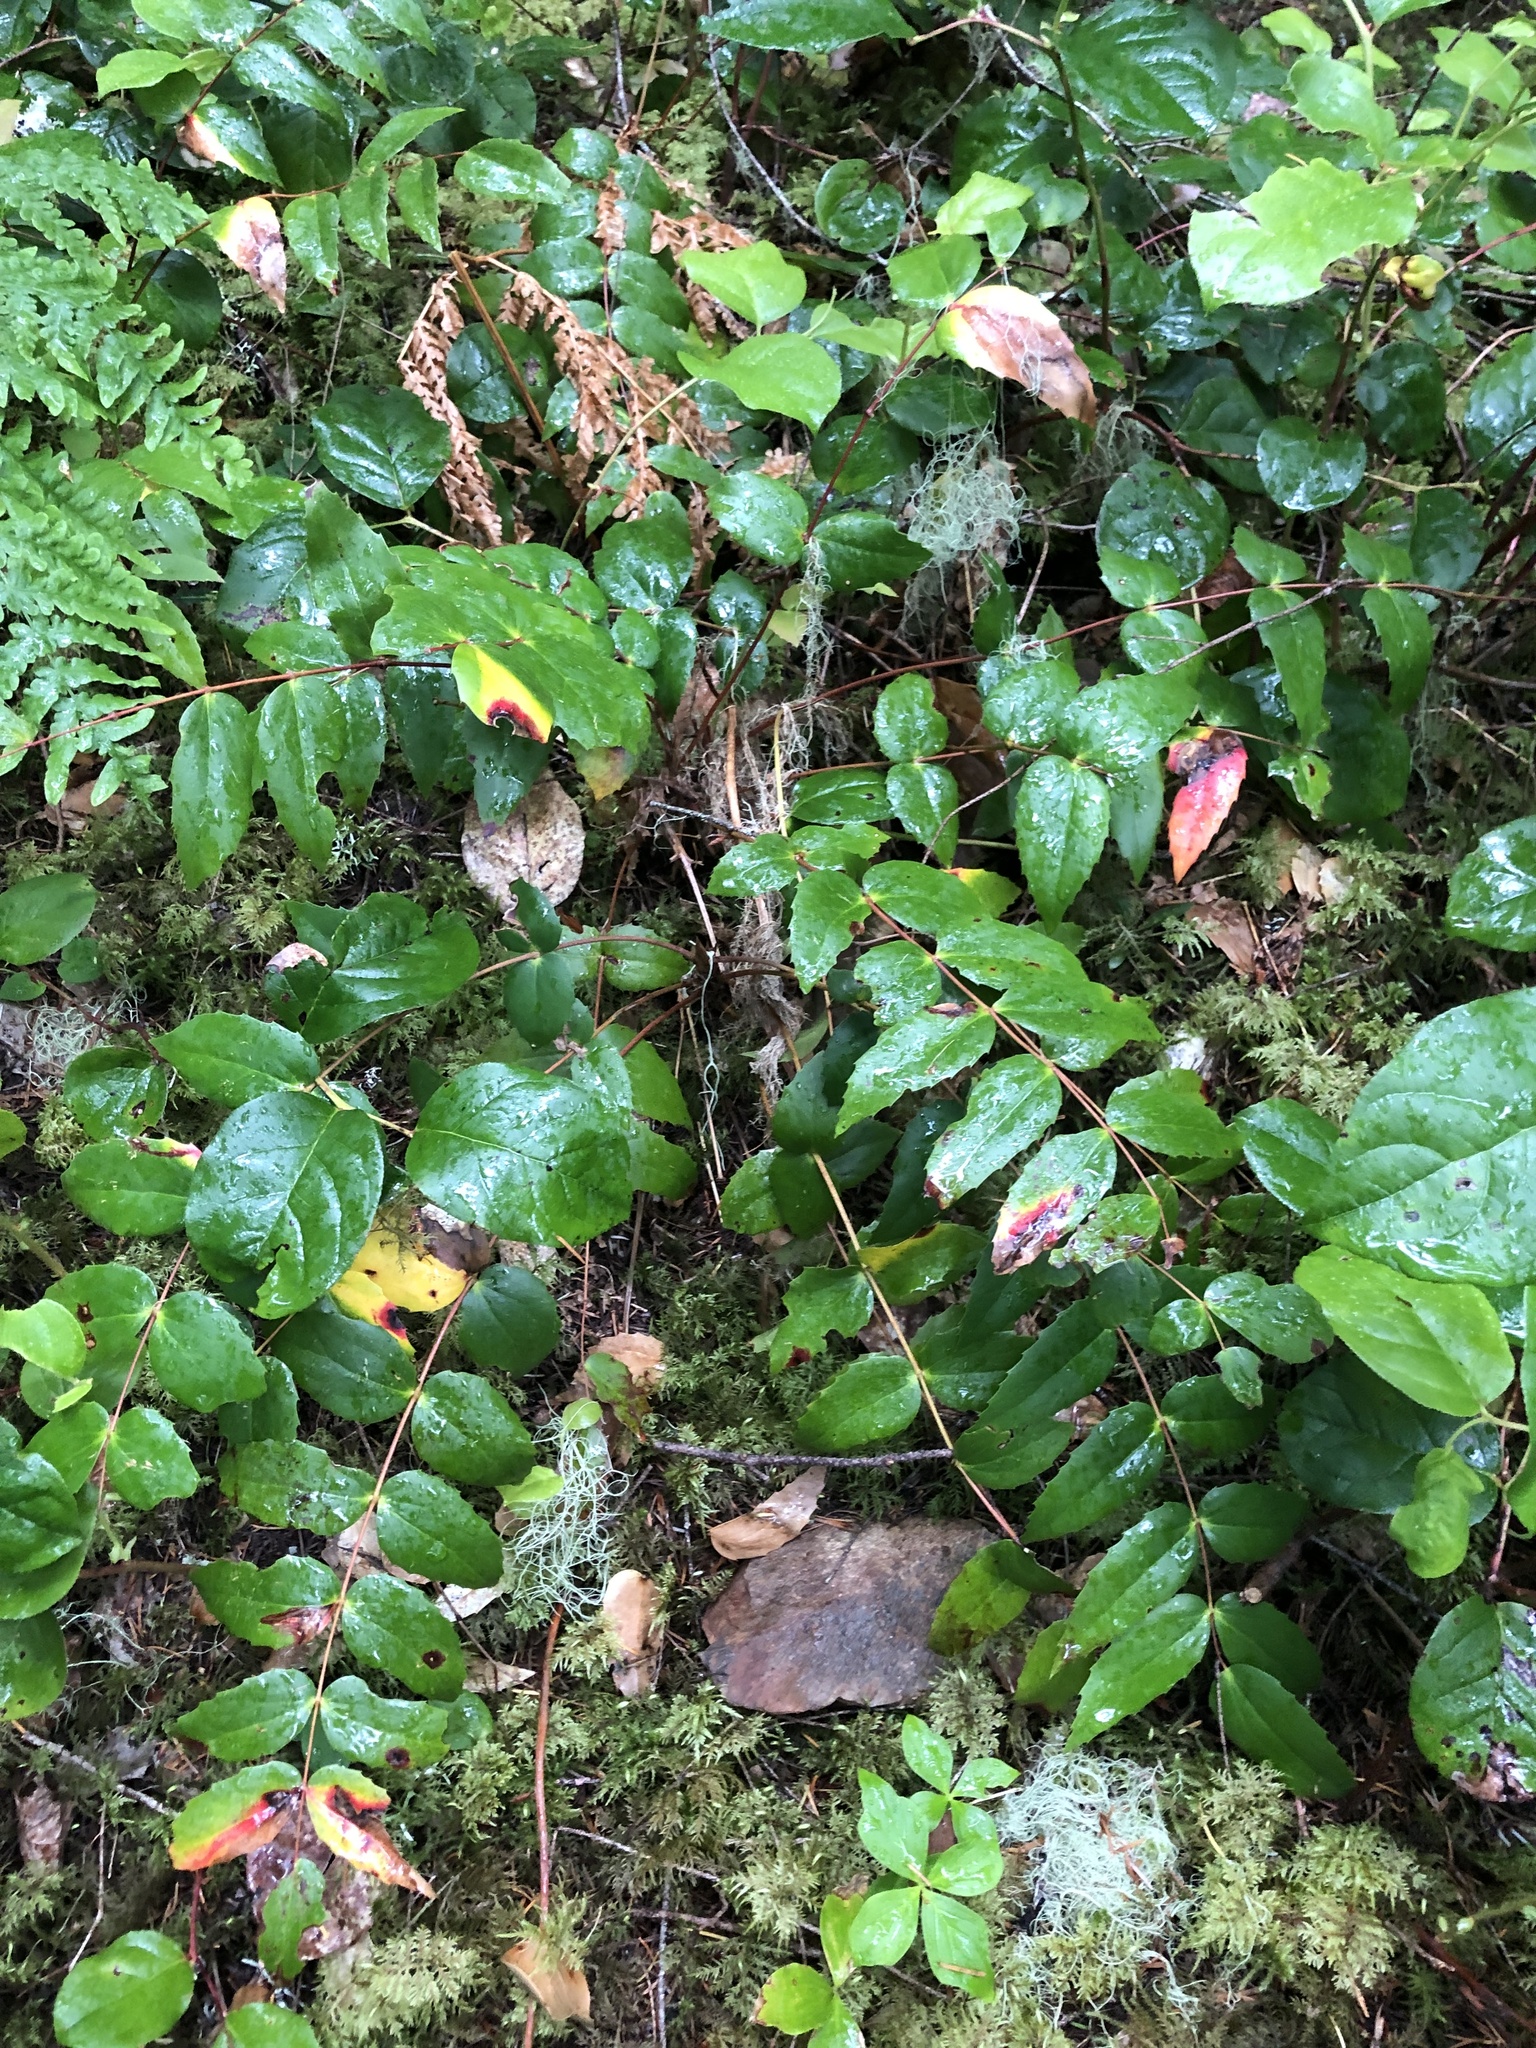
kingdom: Plantae
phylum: Tracheophyta
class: Magnoliopsida
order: Ranunculales
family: Berberidaceae
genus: Mahonia
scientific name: Mahonia nervosa
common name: Cascade oregon-grape
